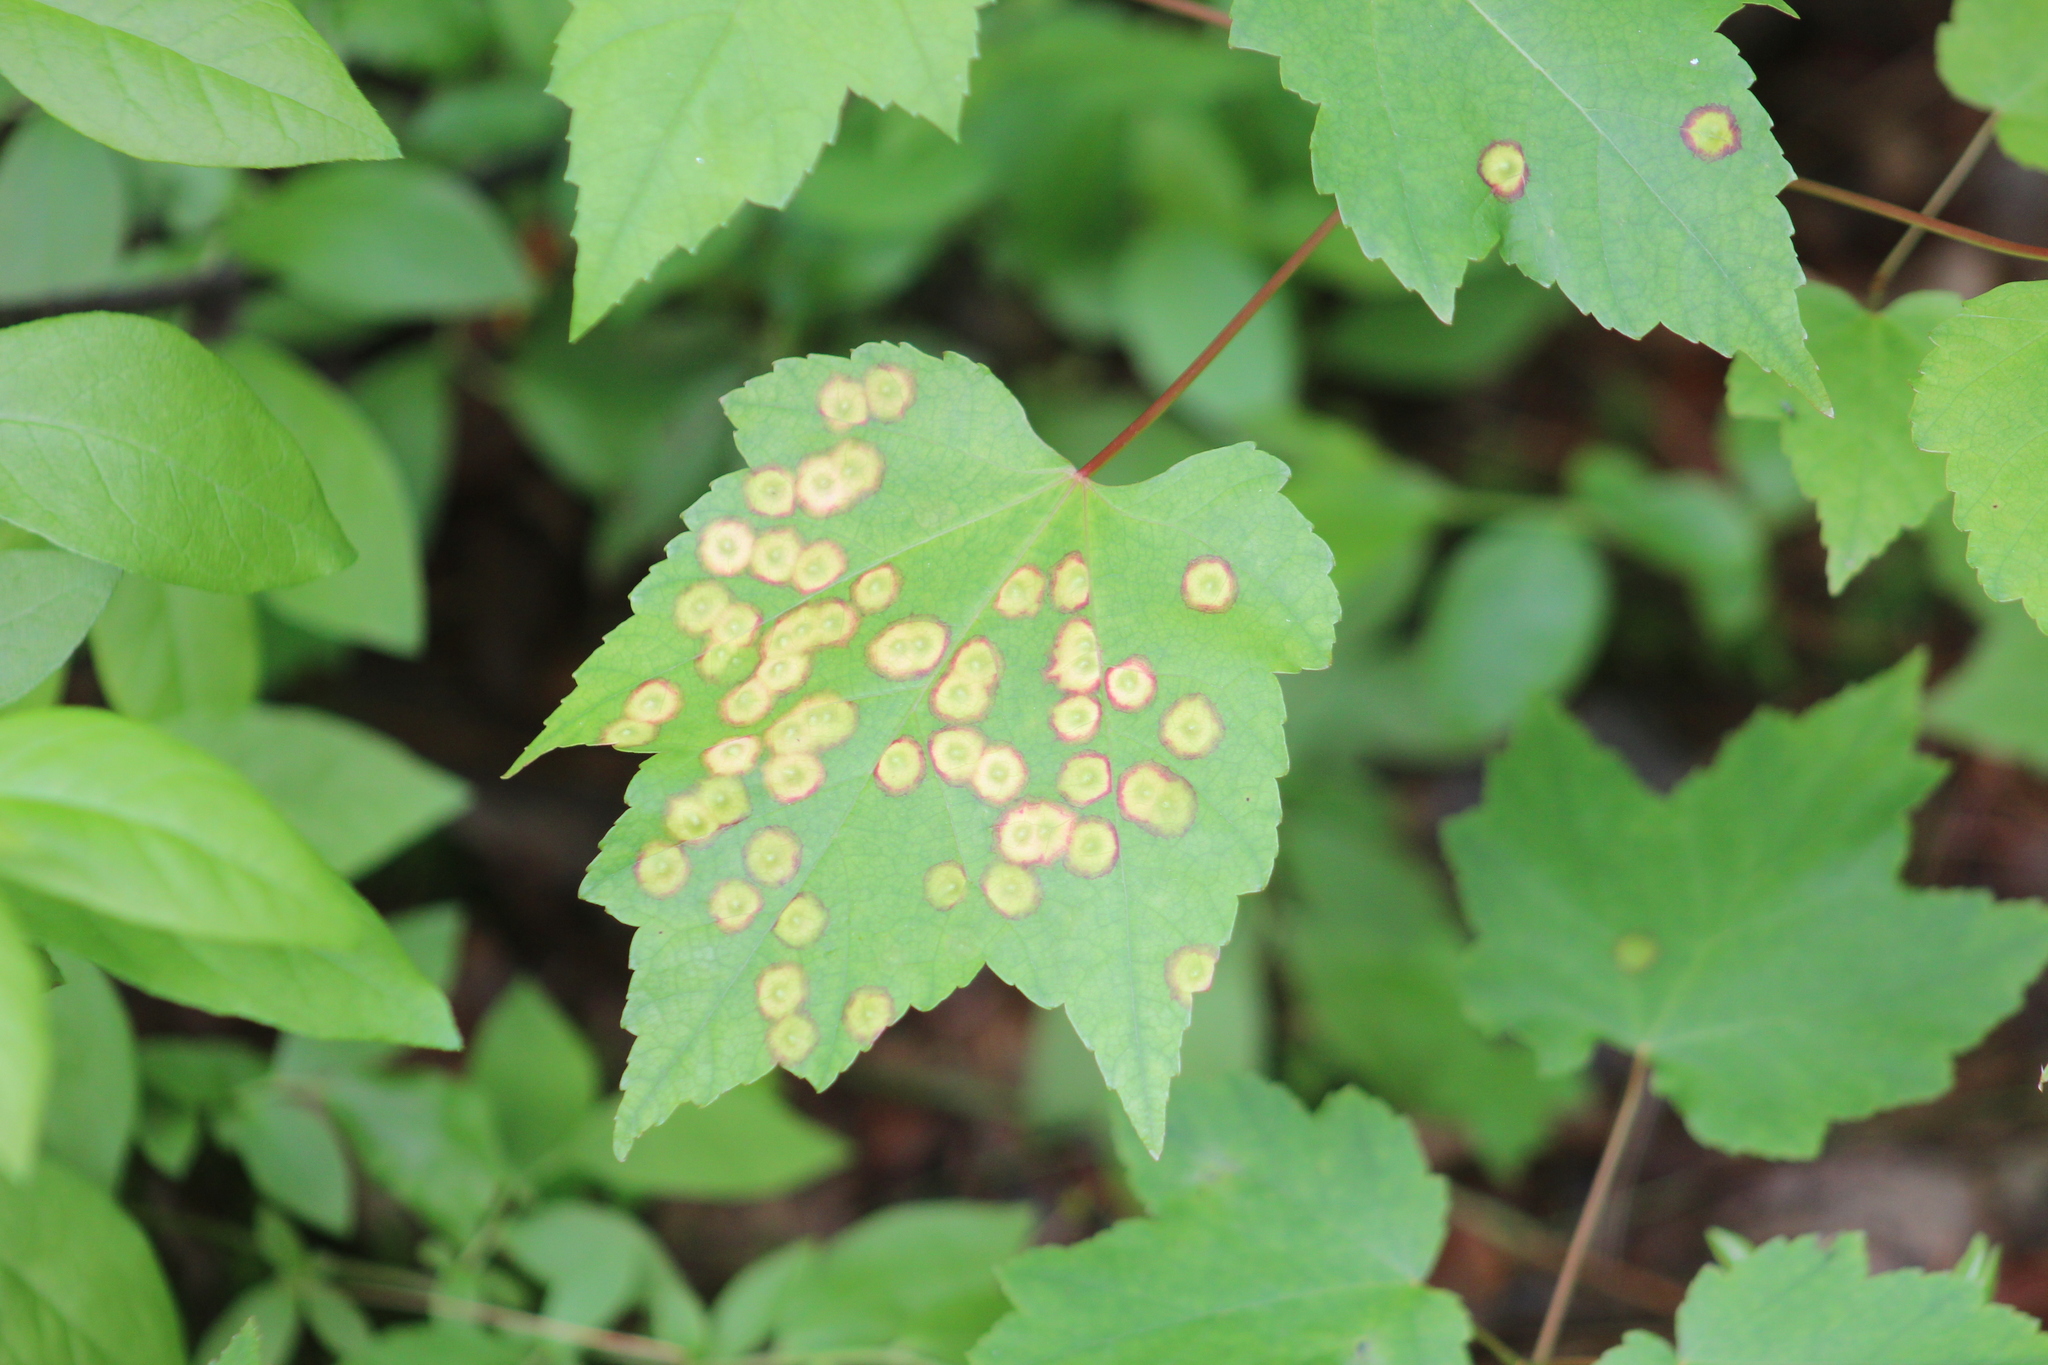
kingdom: Animalia
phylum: Arthropoda
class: Insecta
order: Diptera
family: Cecidomyiidae
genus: Acericecis
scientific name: Acericecis ocellaris
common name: Ocellate gall midge
